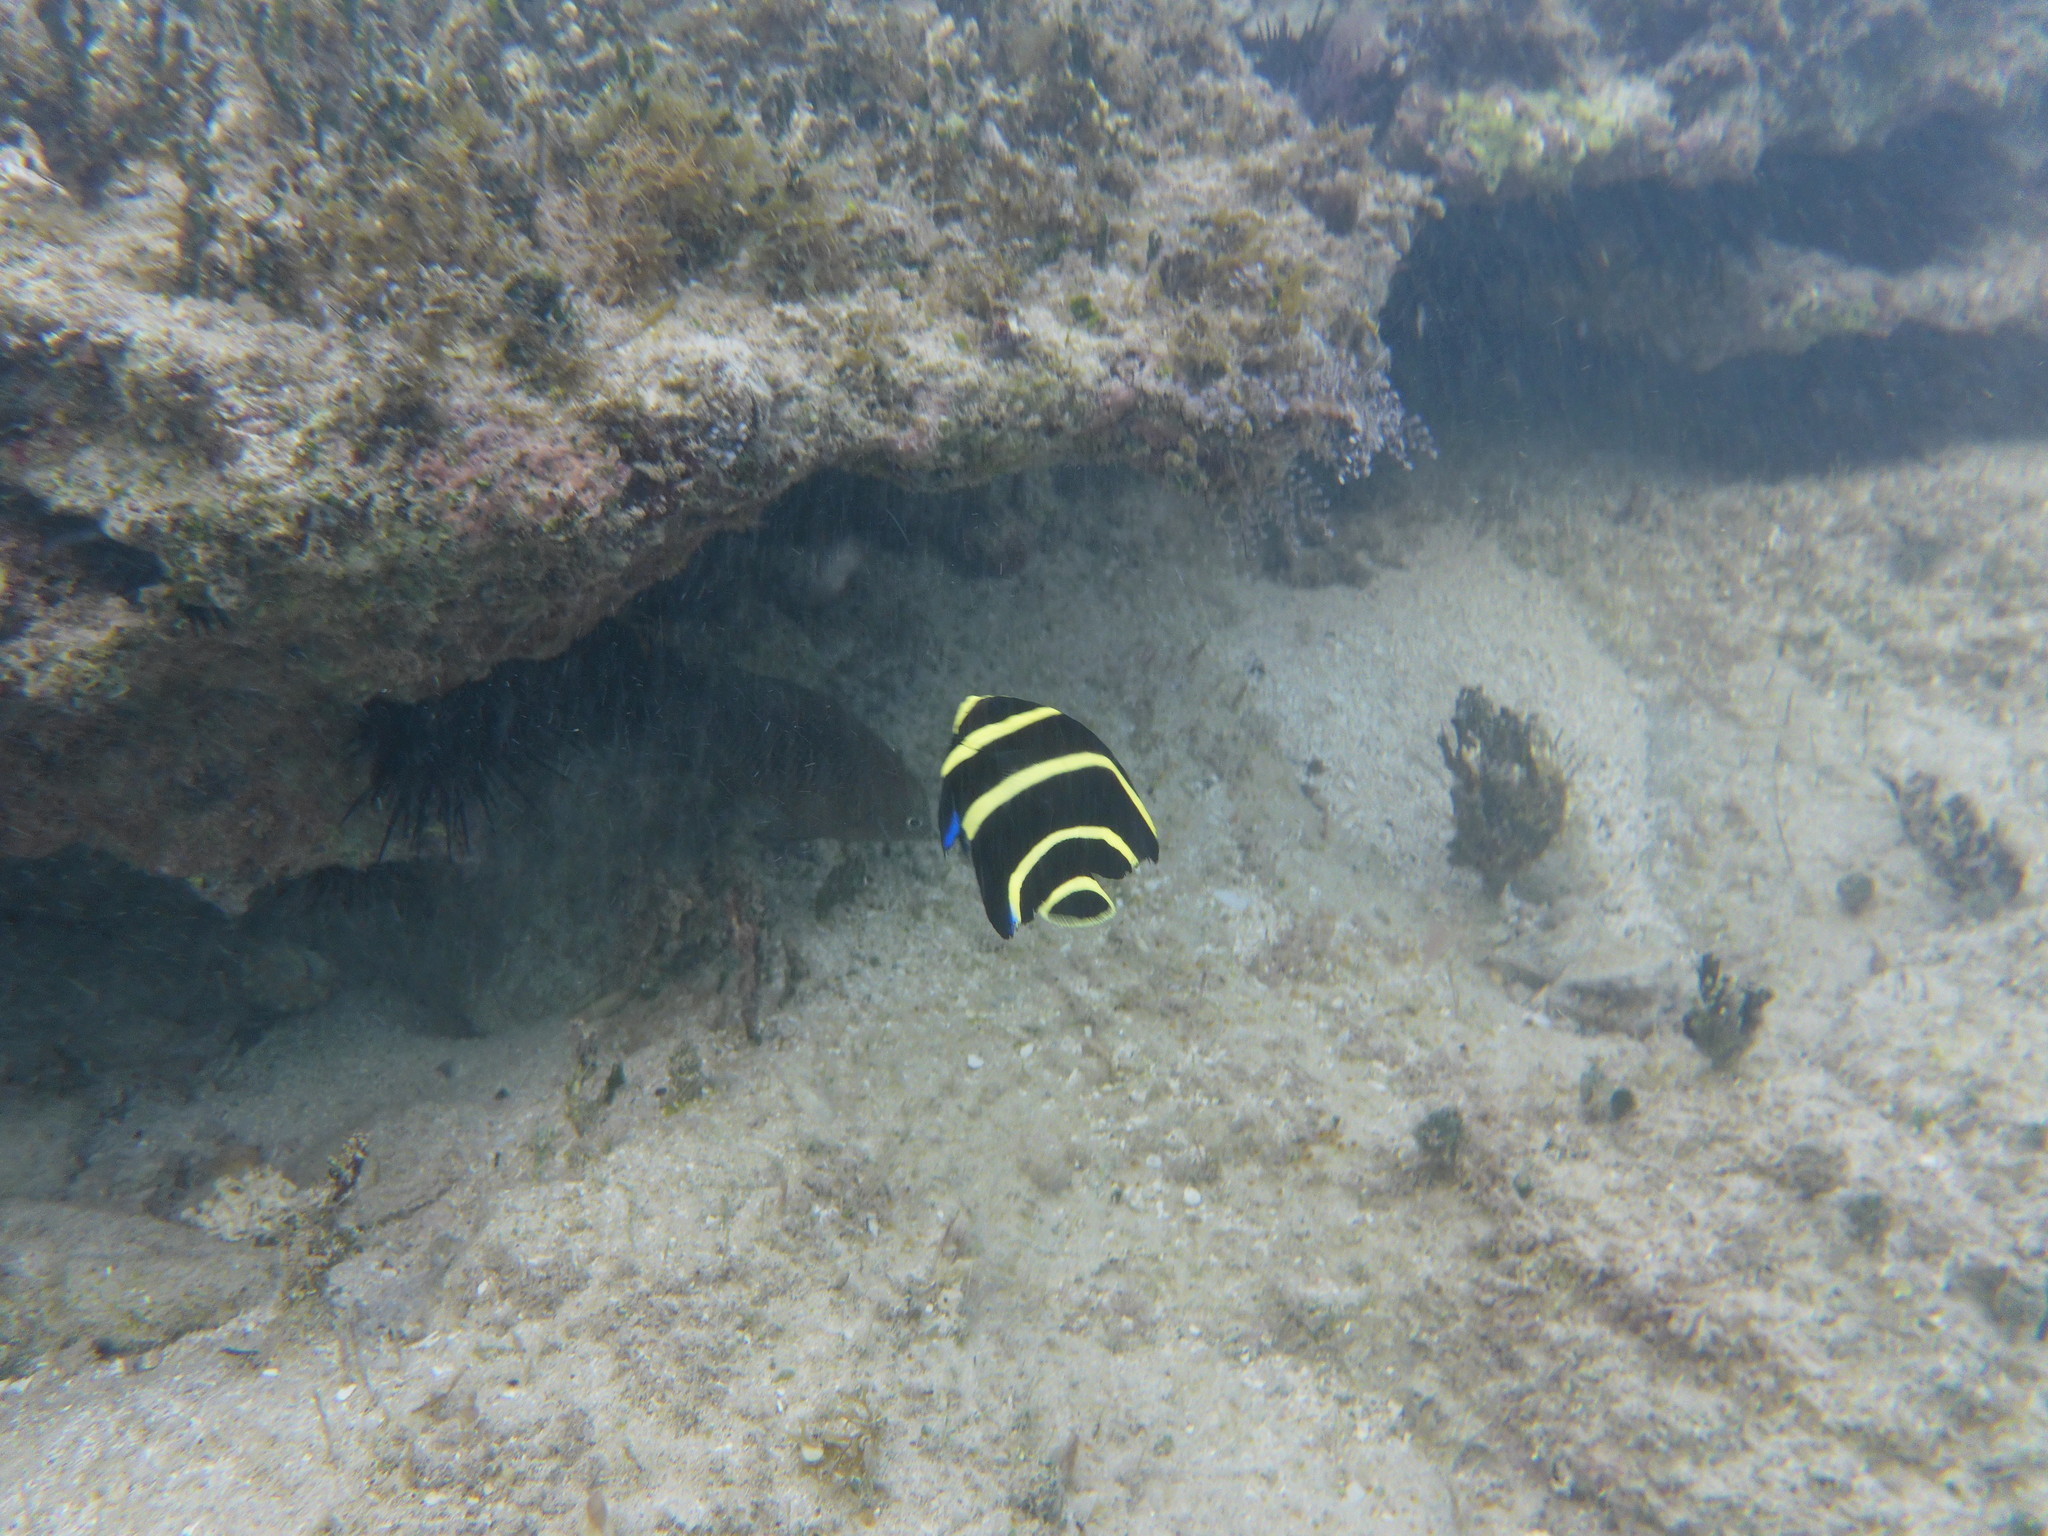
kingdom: Animalia
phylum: Chordata
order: Perciformes
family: Pomacanthidae
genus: Pomacanthus
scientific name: Pomacanthus paru
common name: French angelfish
